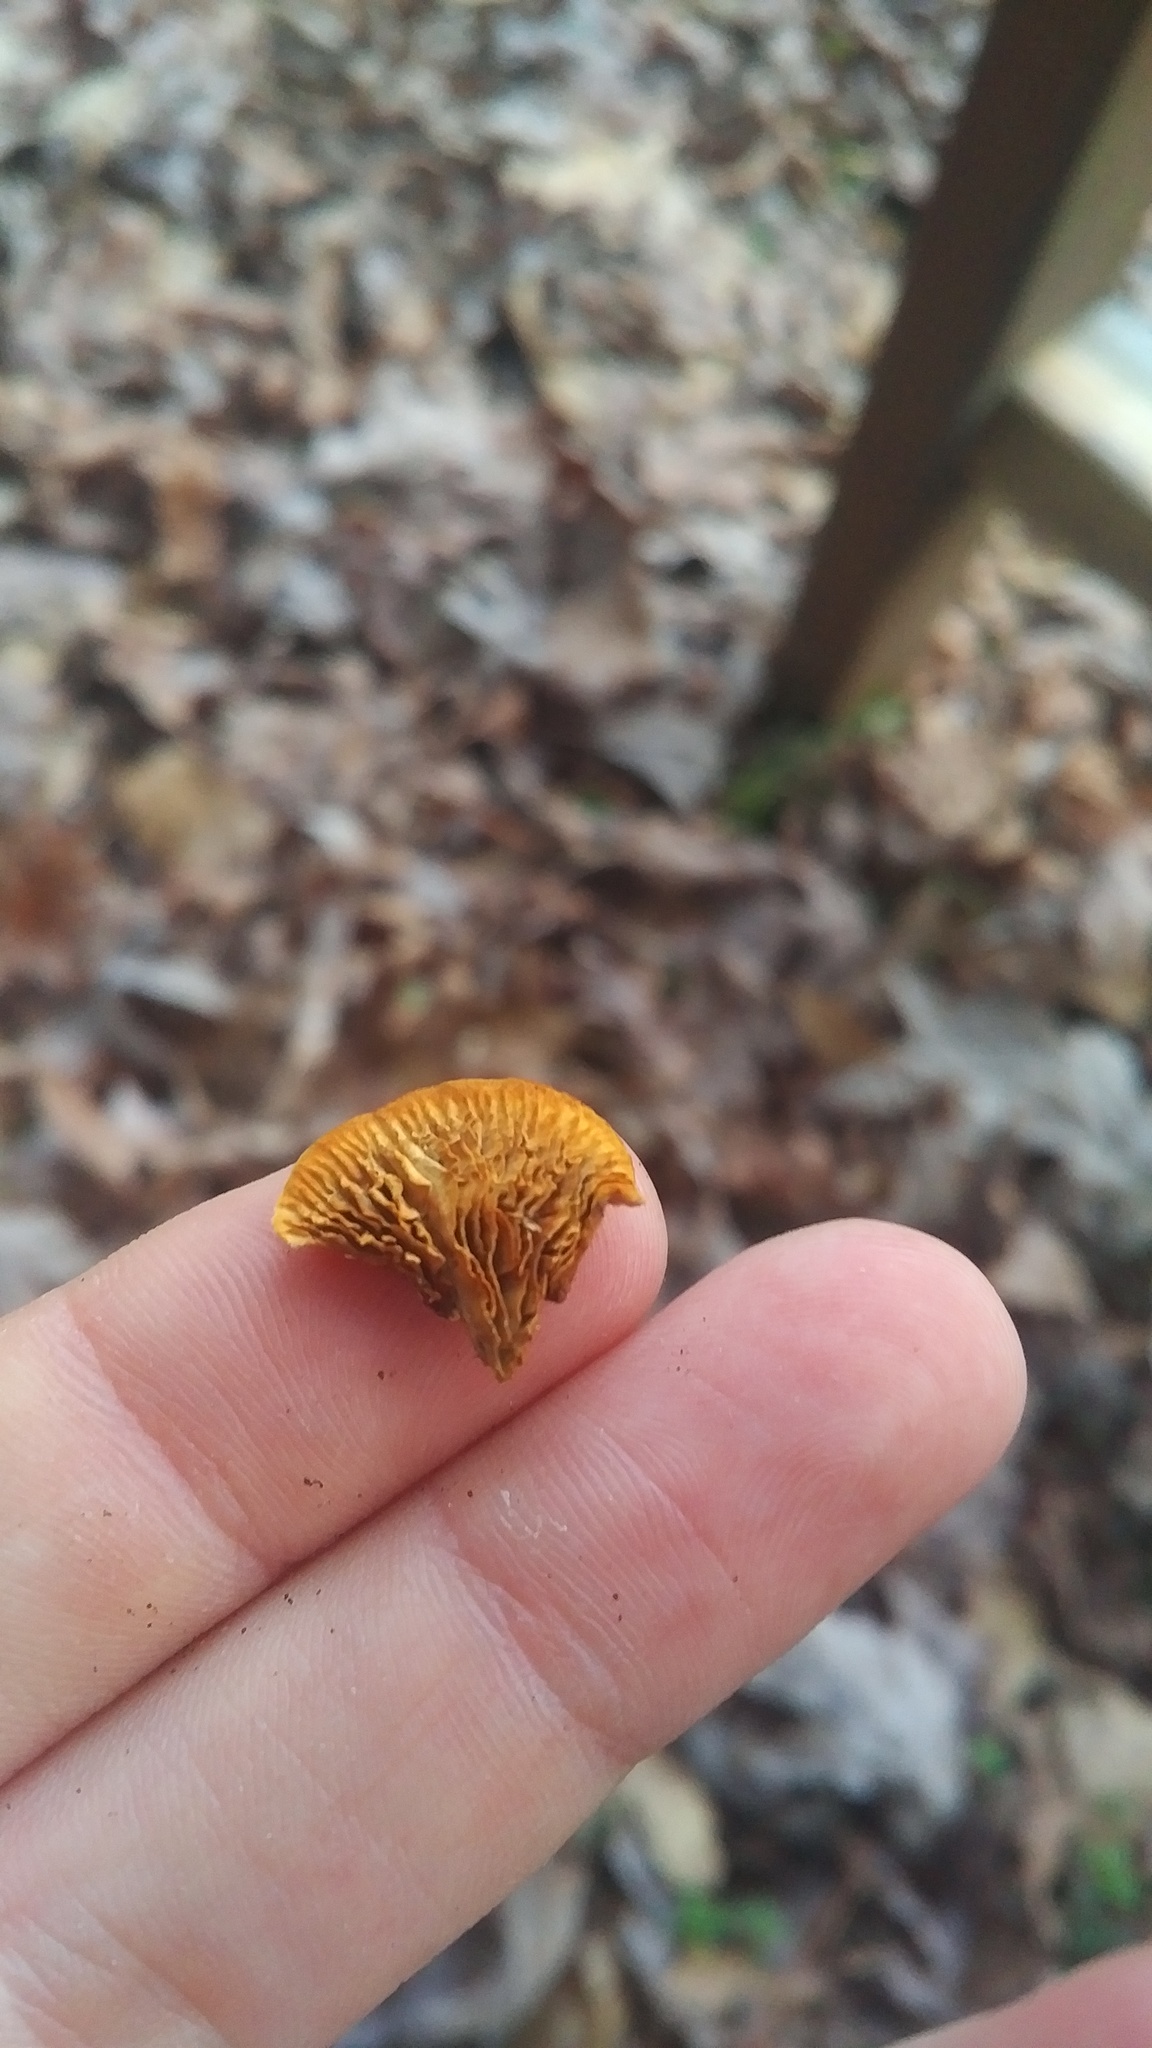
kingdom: Fungi
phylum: Basidiomycota
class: Agaricomycetes
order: Gloeophyllales
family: Gloeophyllaceae
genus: Gloeophyllum
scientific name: Gloeophyllum sepiarium
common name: Conifer mazegill
